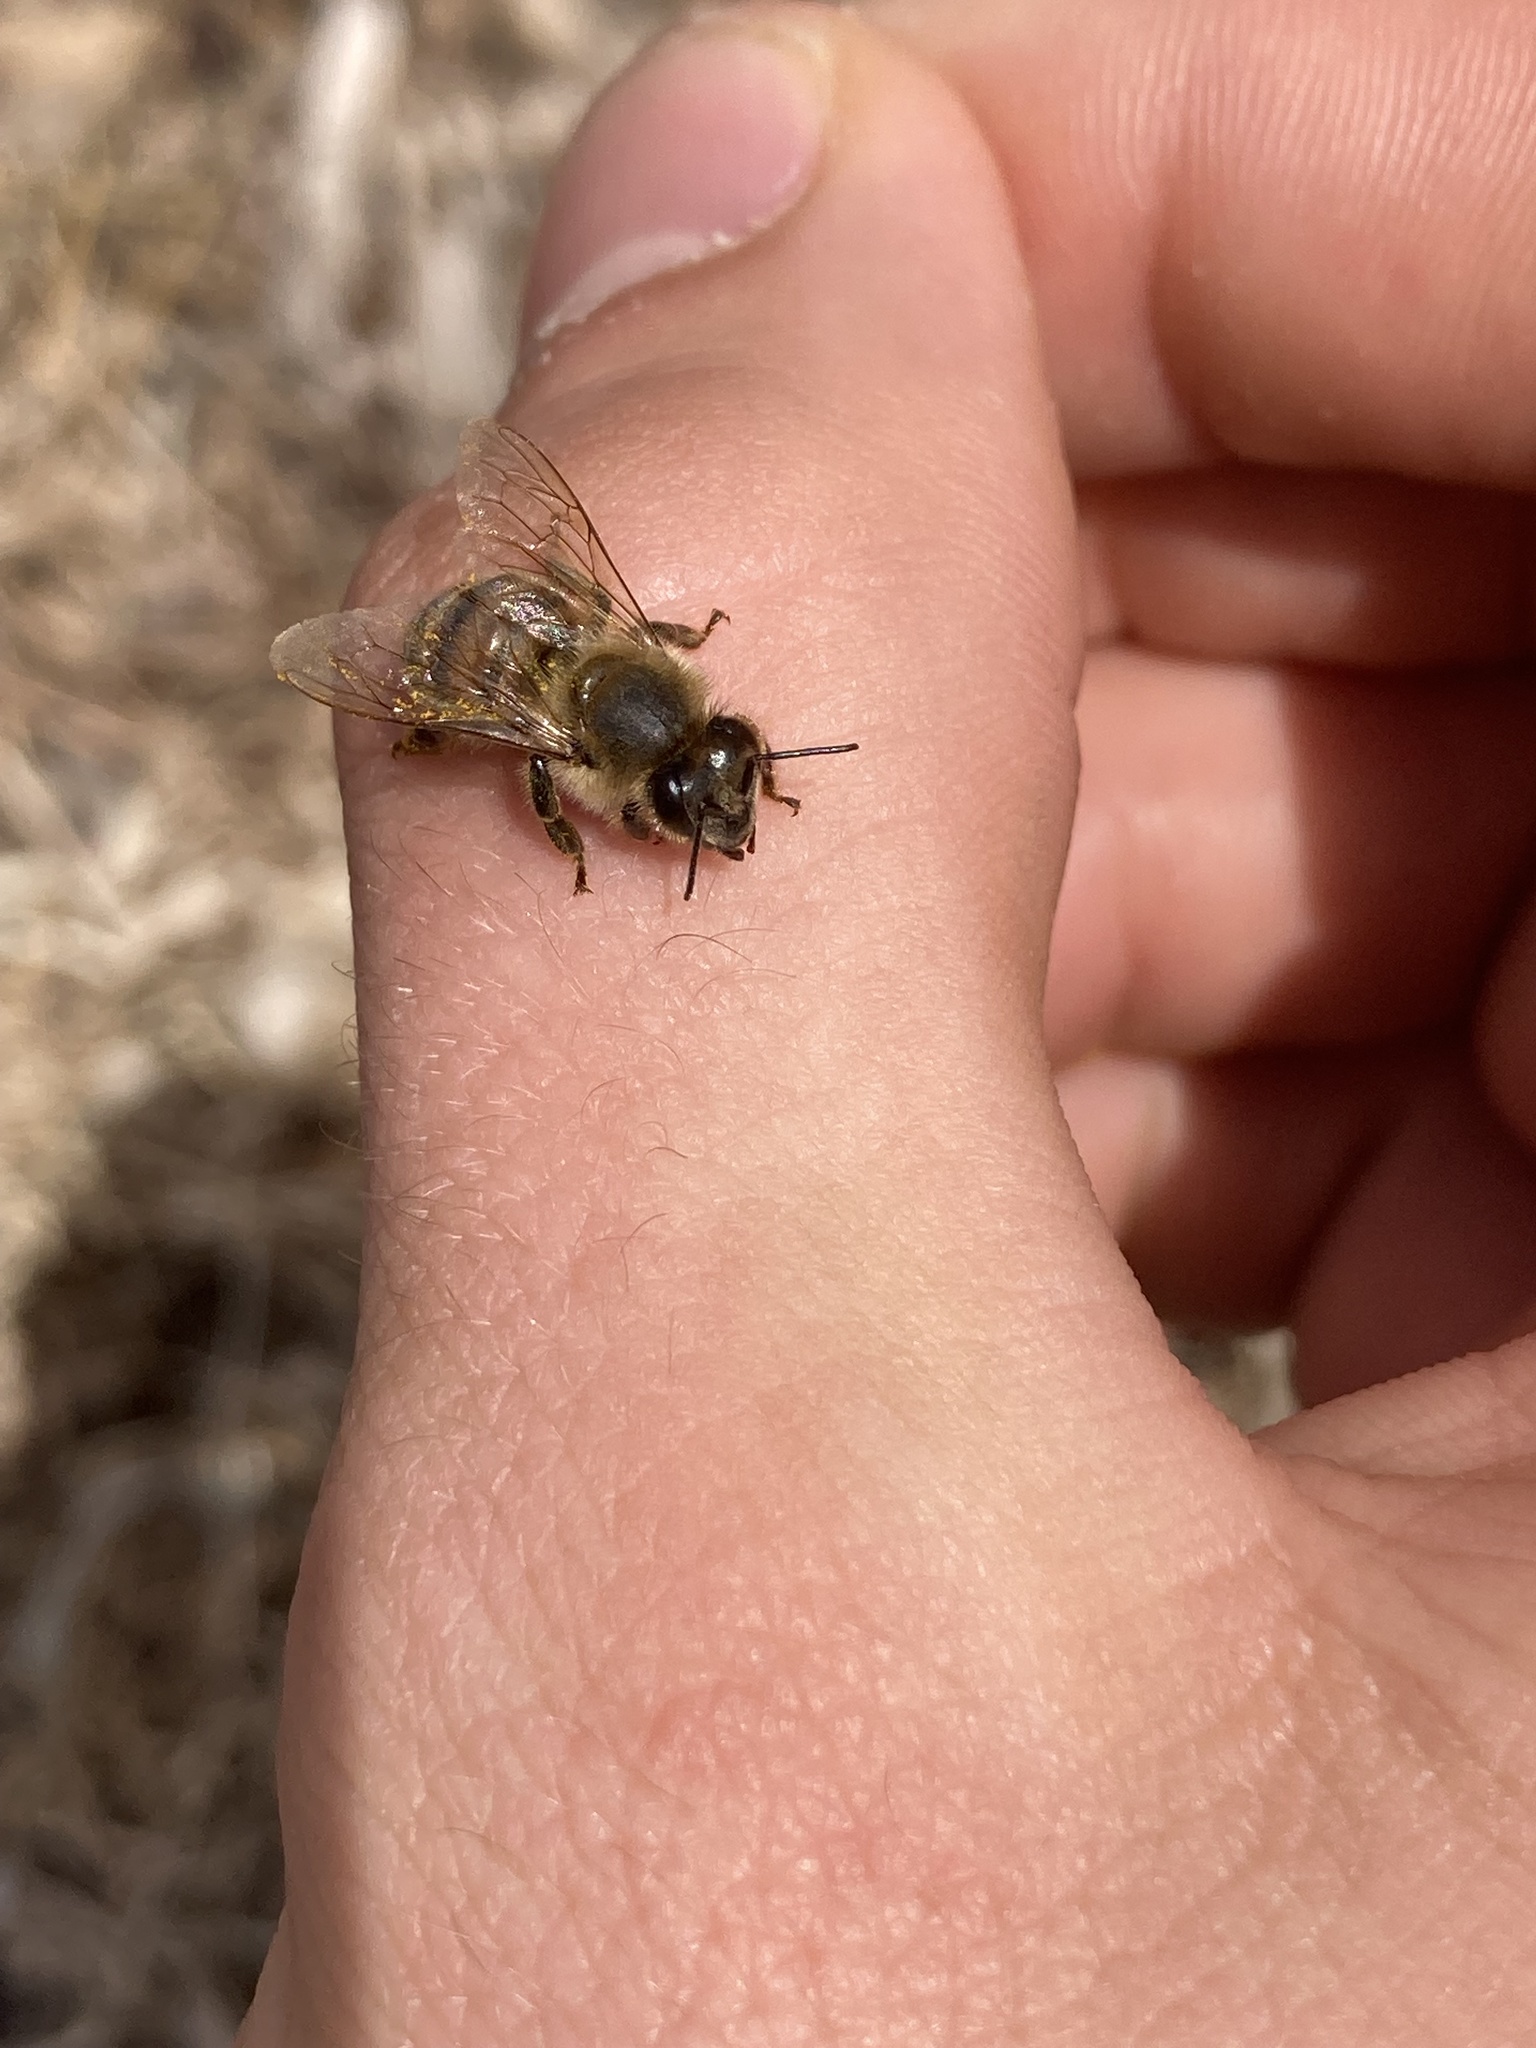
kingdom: Animalia
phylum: Arthropoda
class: Insecta
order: Hymenoptera
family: Apidae
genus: Apis
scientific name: Apis mellifera
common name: Honey bee
